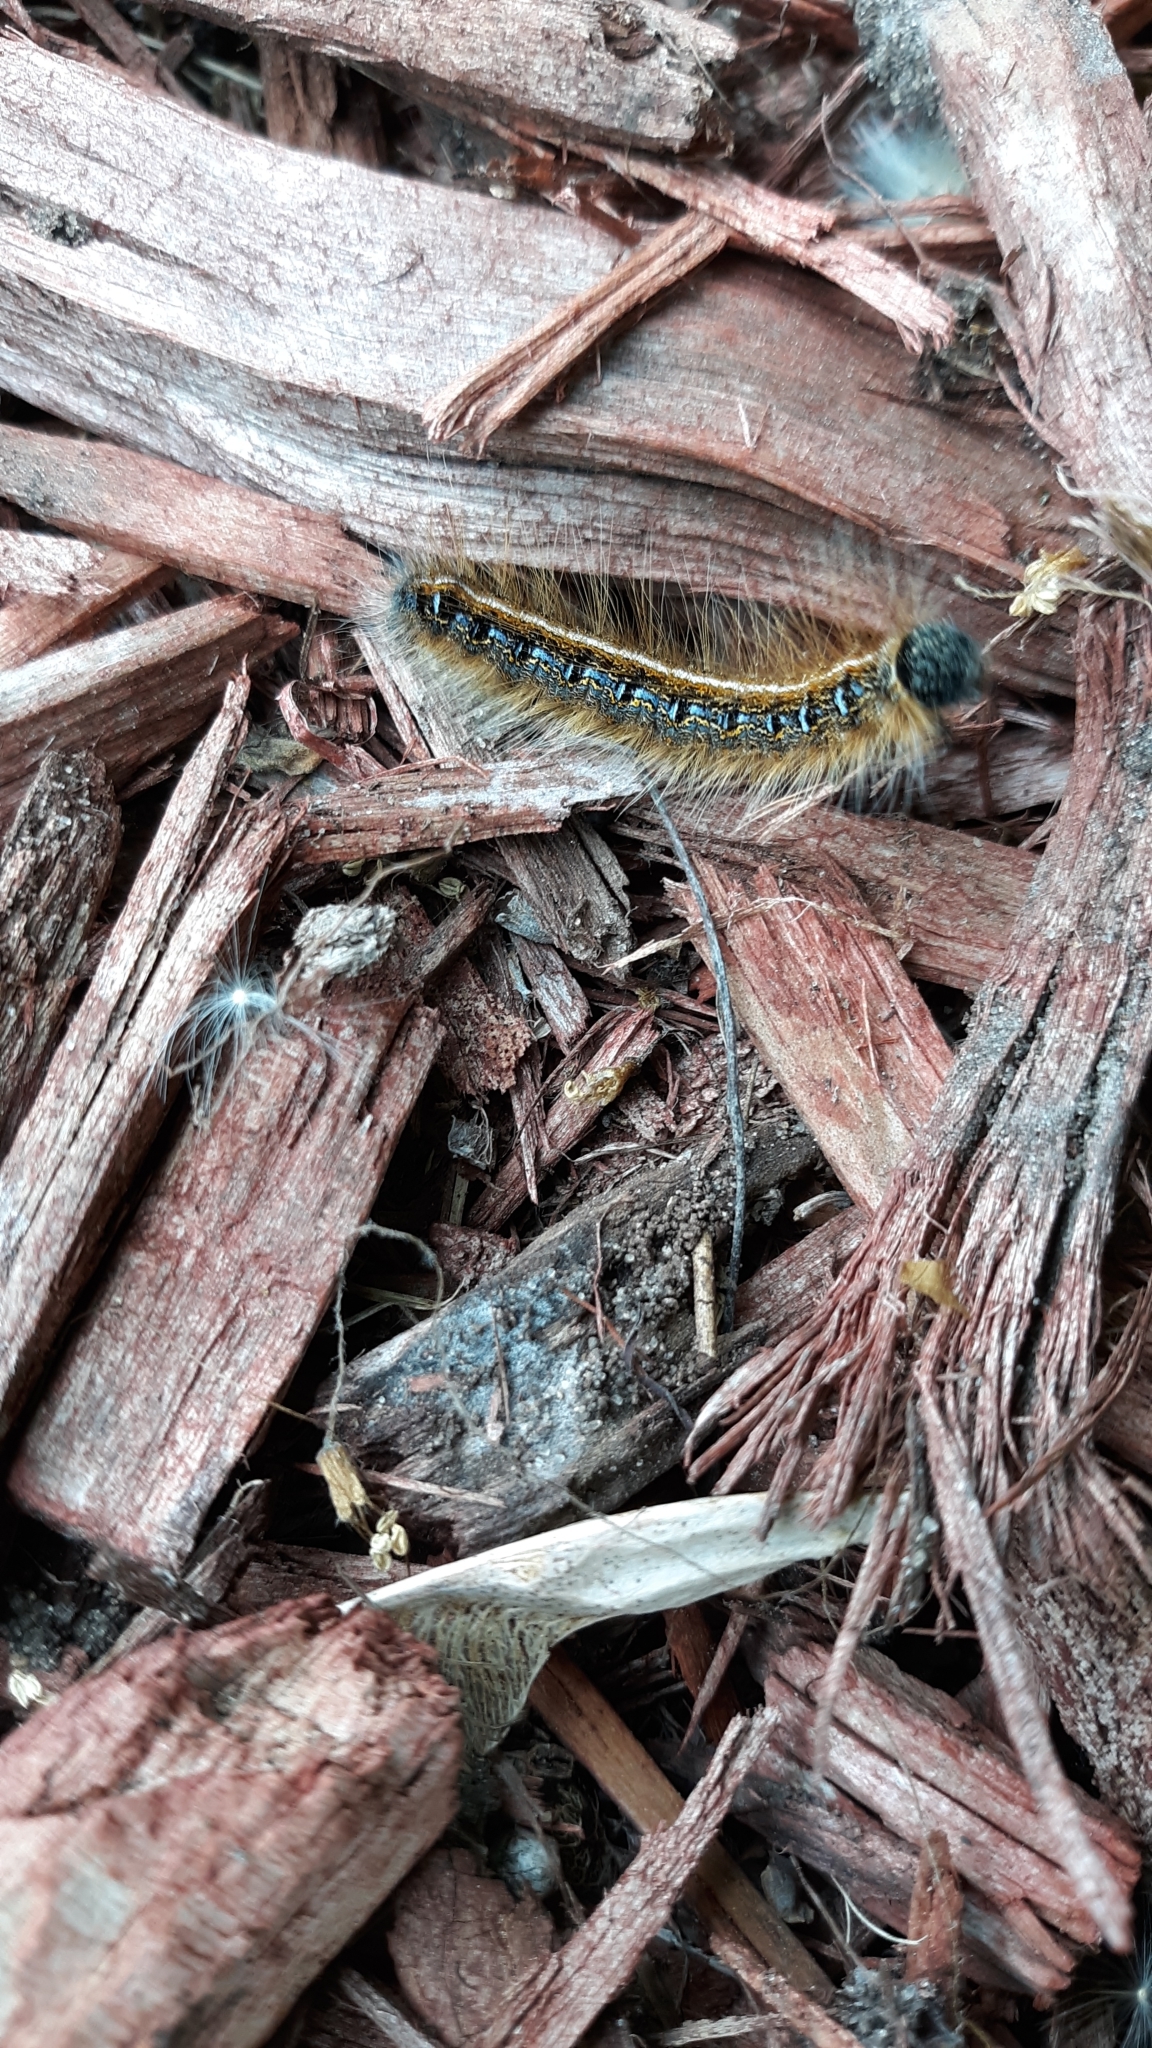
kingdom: Animalia
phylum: Arthropoda
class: Insecta
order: Lepidoptera
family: Lasiocampidae
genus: Malacosoma
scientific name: Malacosoma americana
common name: Eastern tent caterpillar moth
